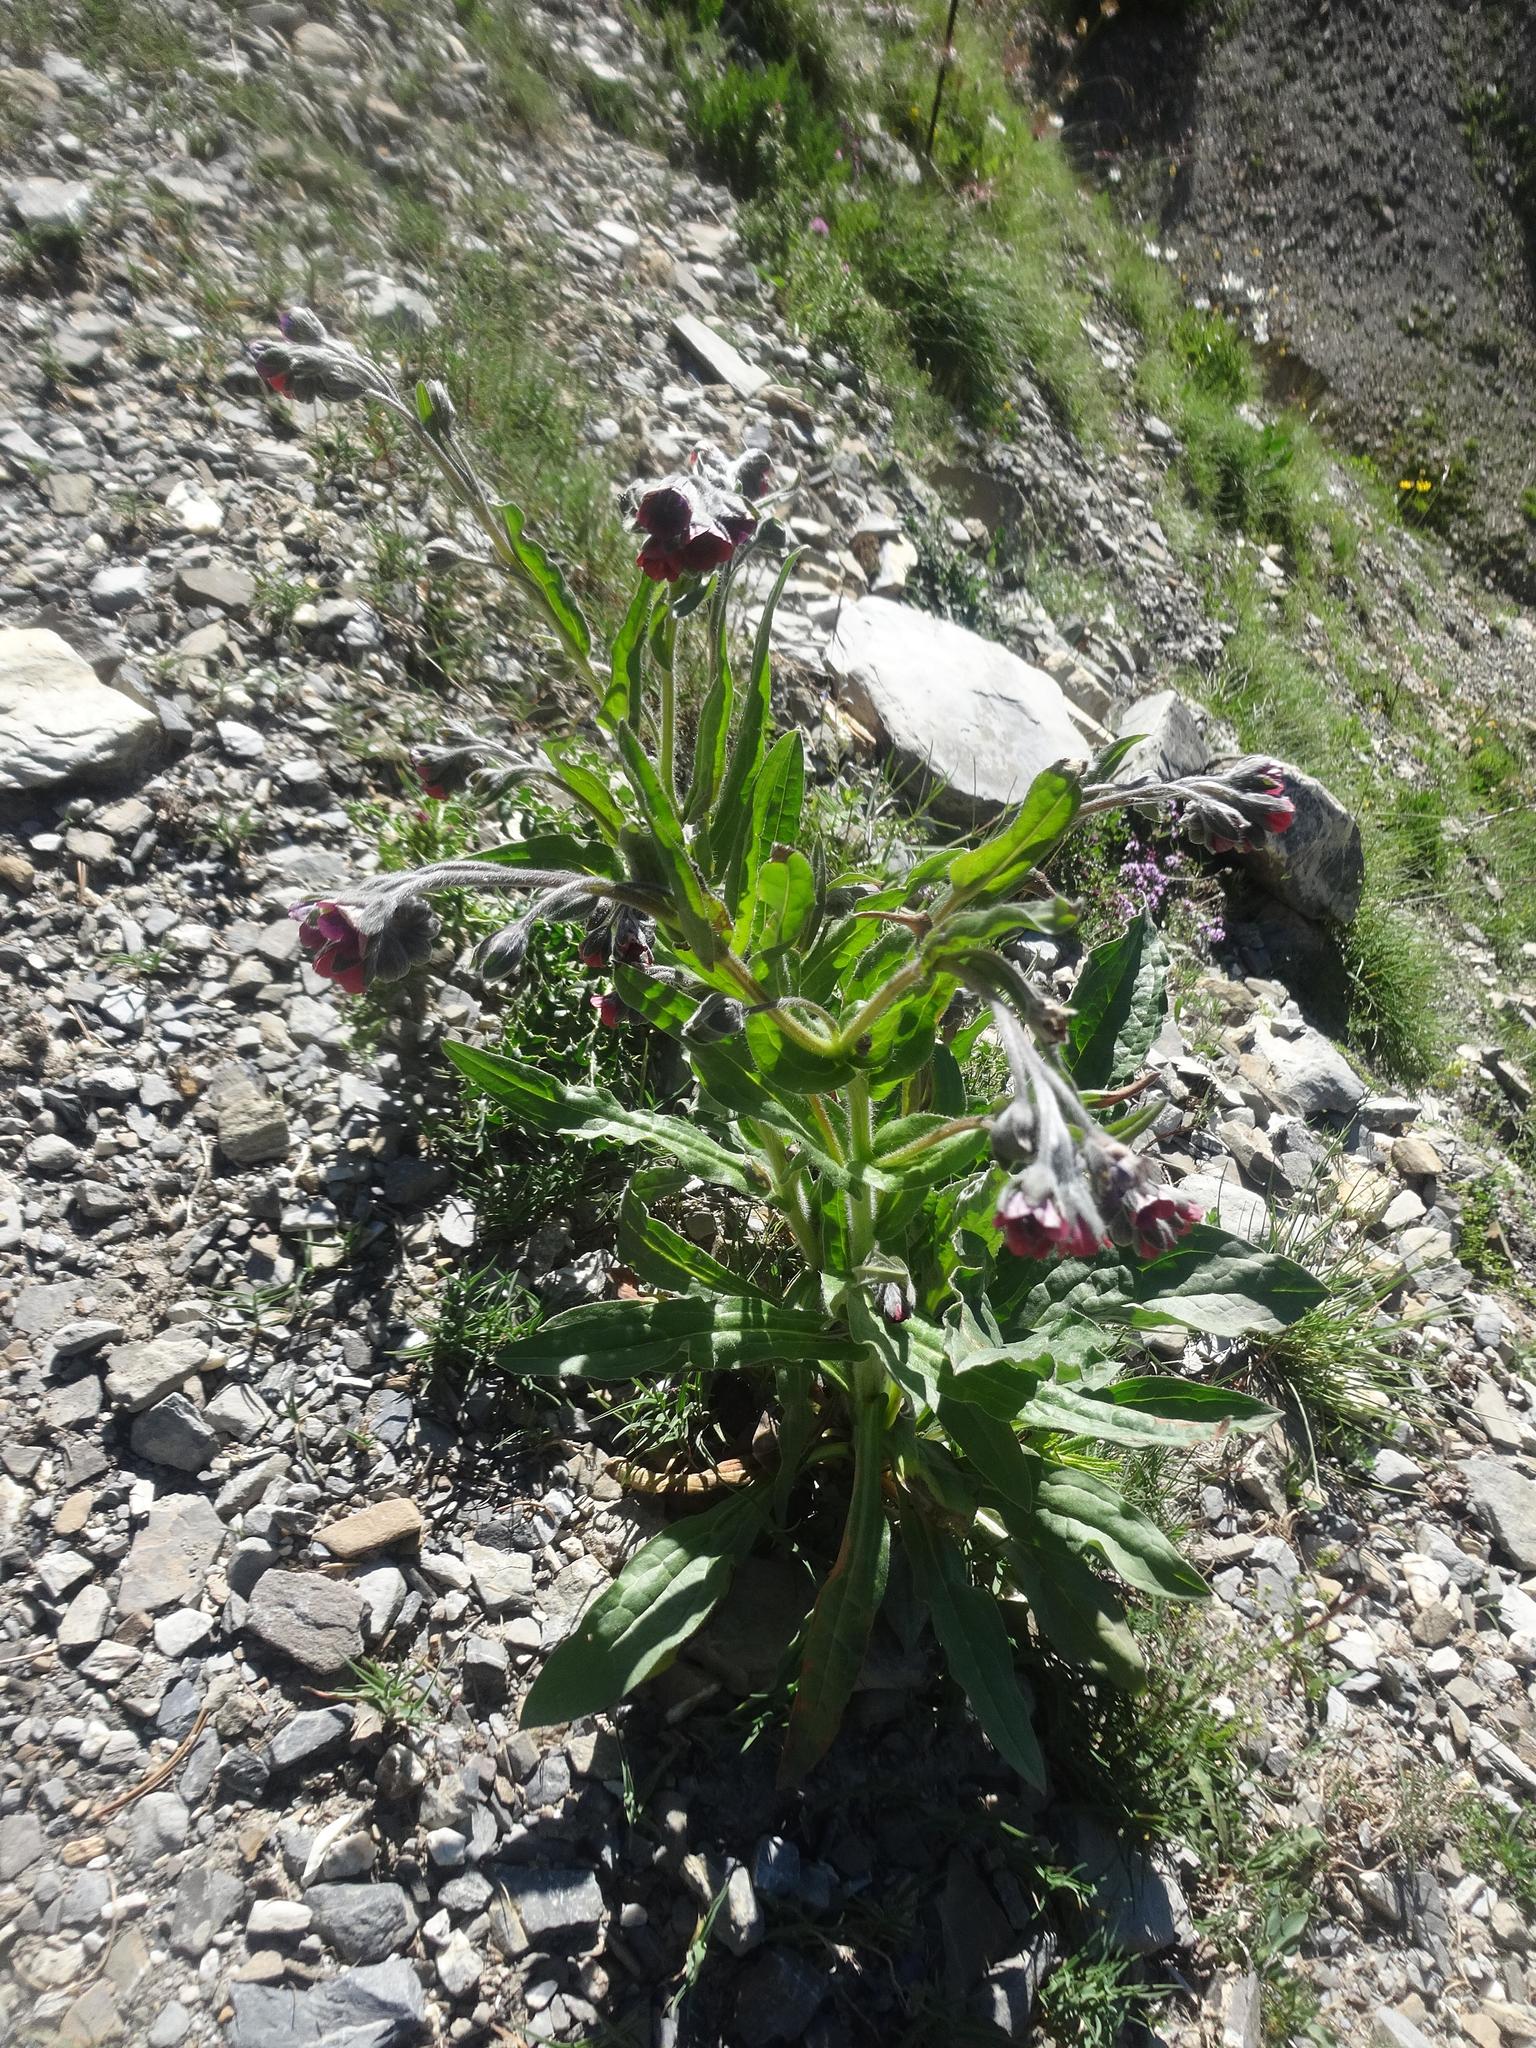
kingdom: Plantae
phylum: Tracheophyta
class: Magnoliopsida
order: Boraginales
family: Boraginaceae
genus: Cynoglossum
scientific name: Cynoglossum officinale
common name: Hound's-tongue
